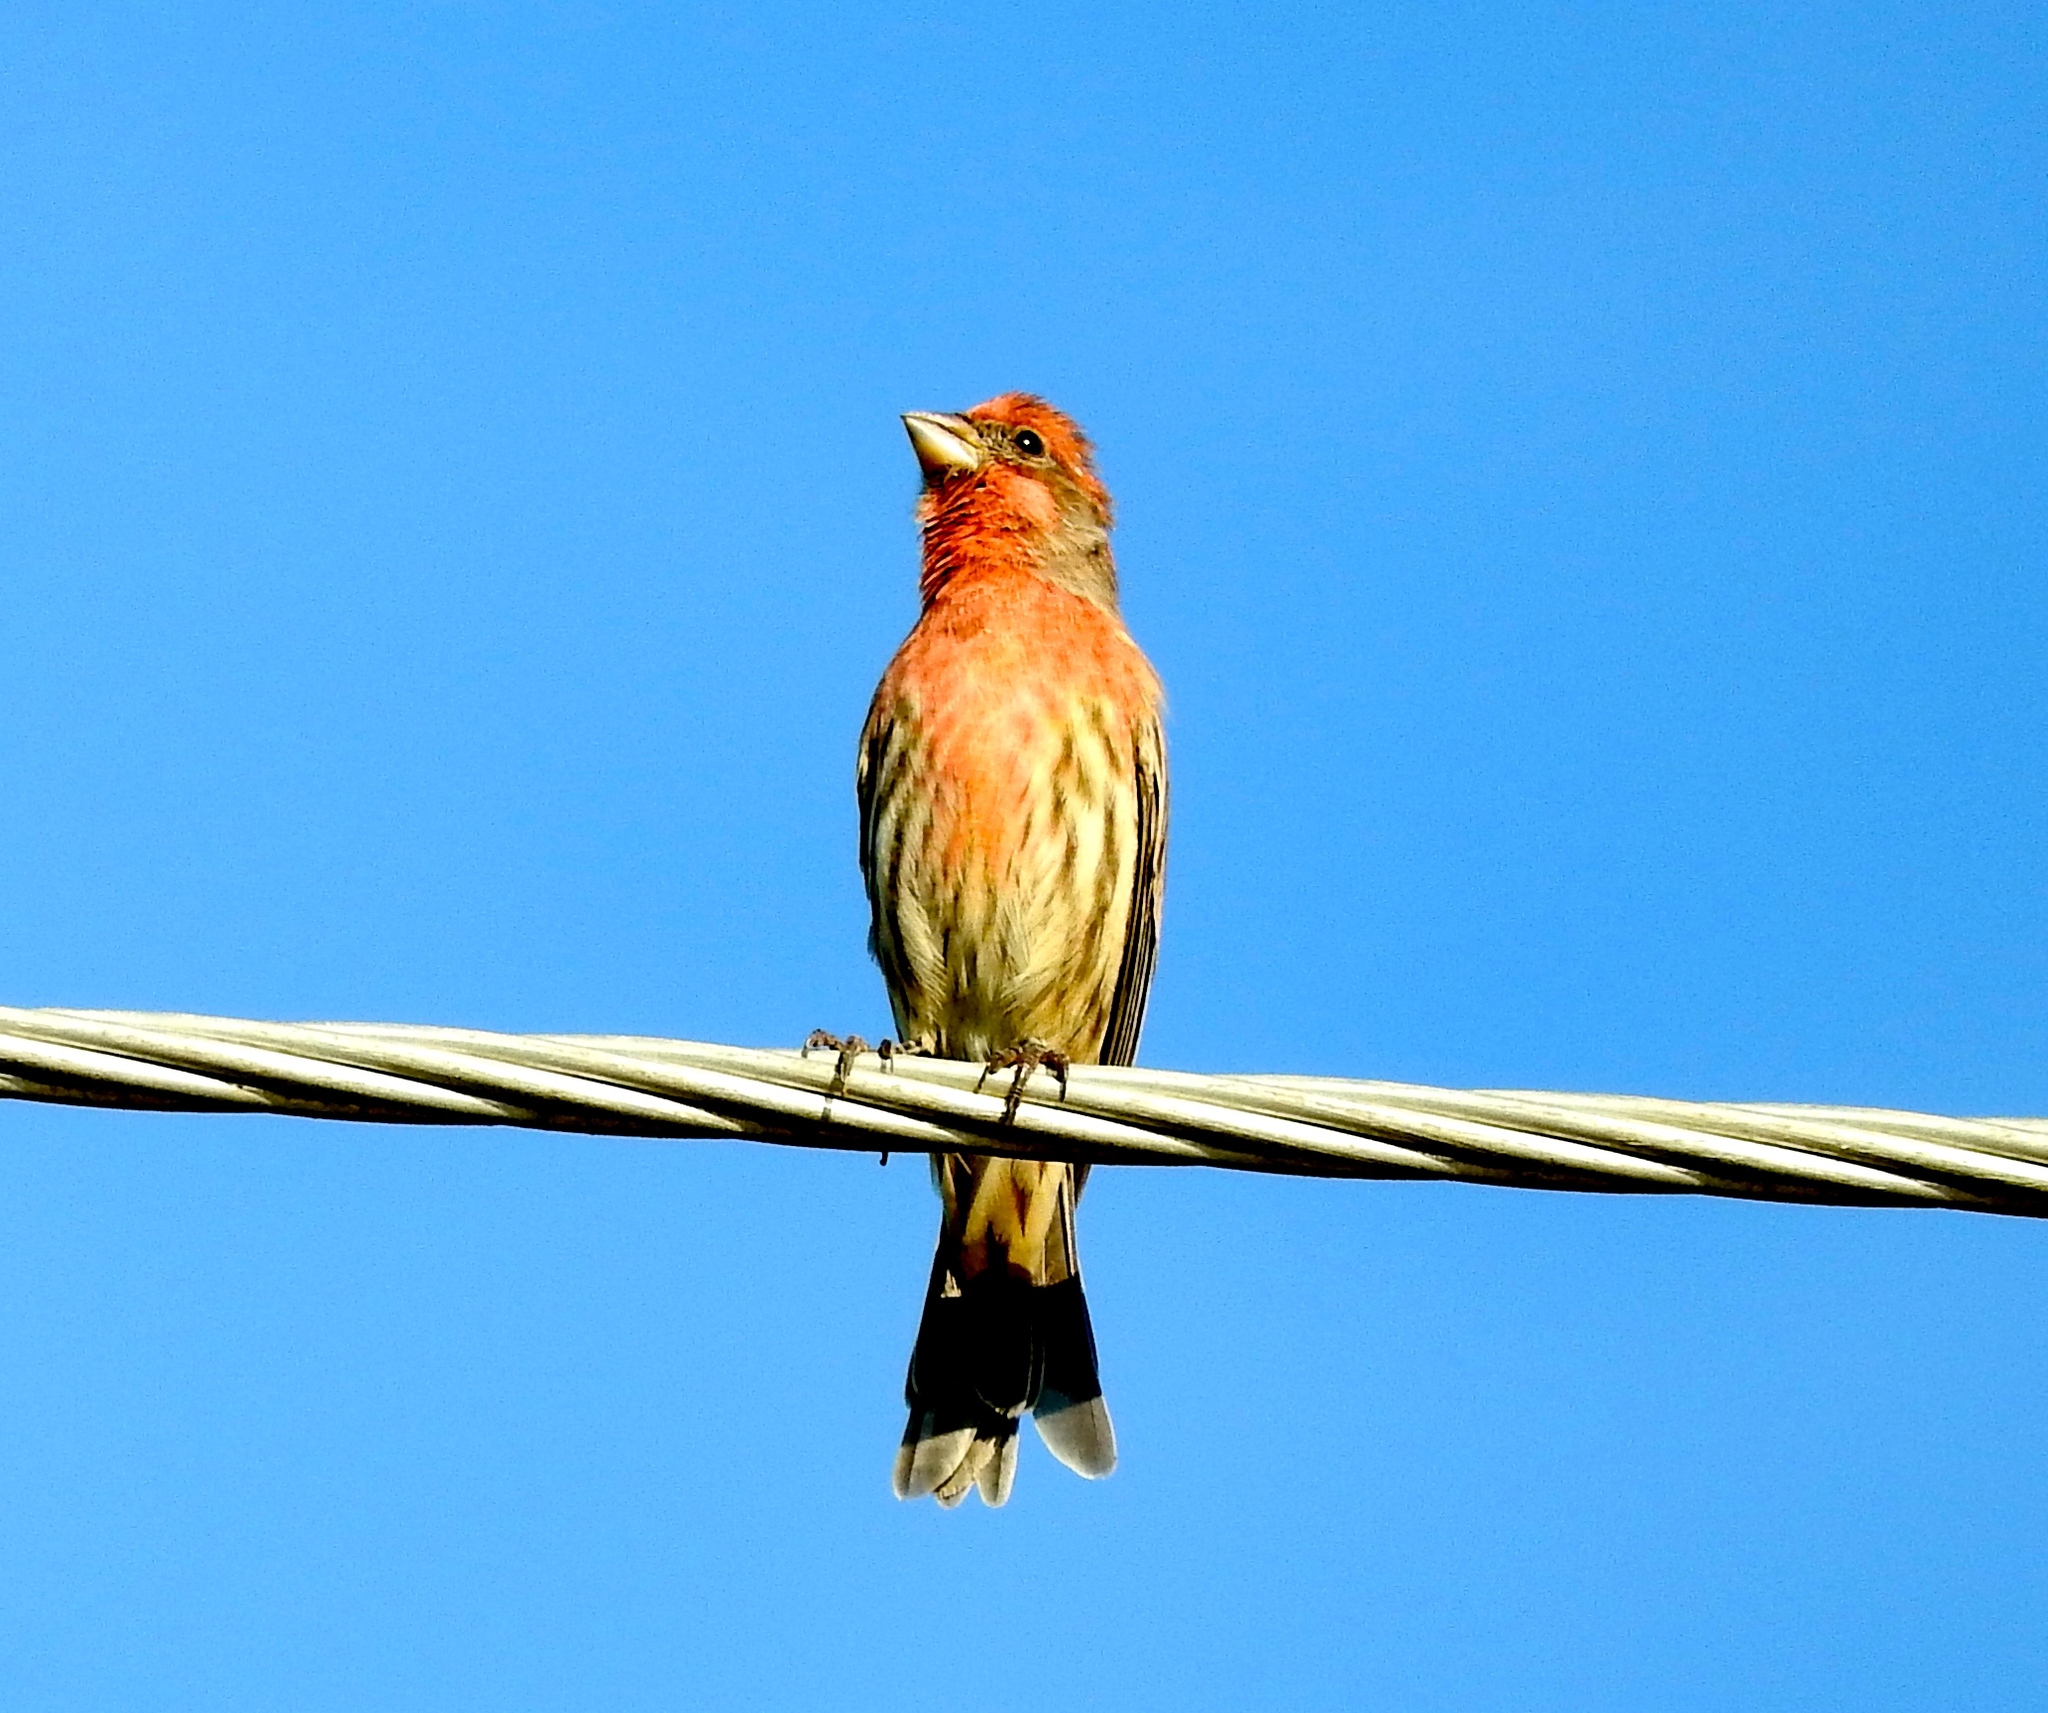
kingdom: Animalia
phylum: Chordata
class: Aves
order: Passeriformes
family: Fringillidae
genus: Haemorhous
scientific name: Haemorhous mexicanus
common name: House finch
